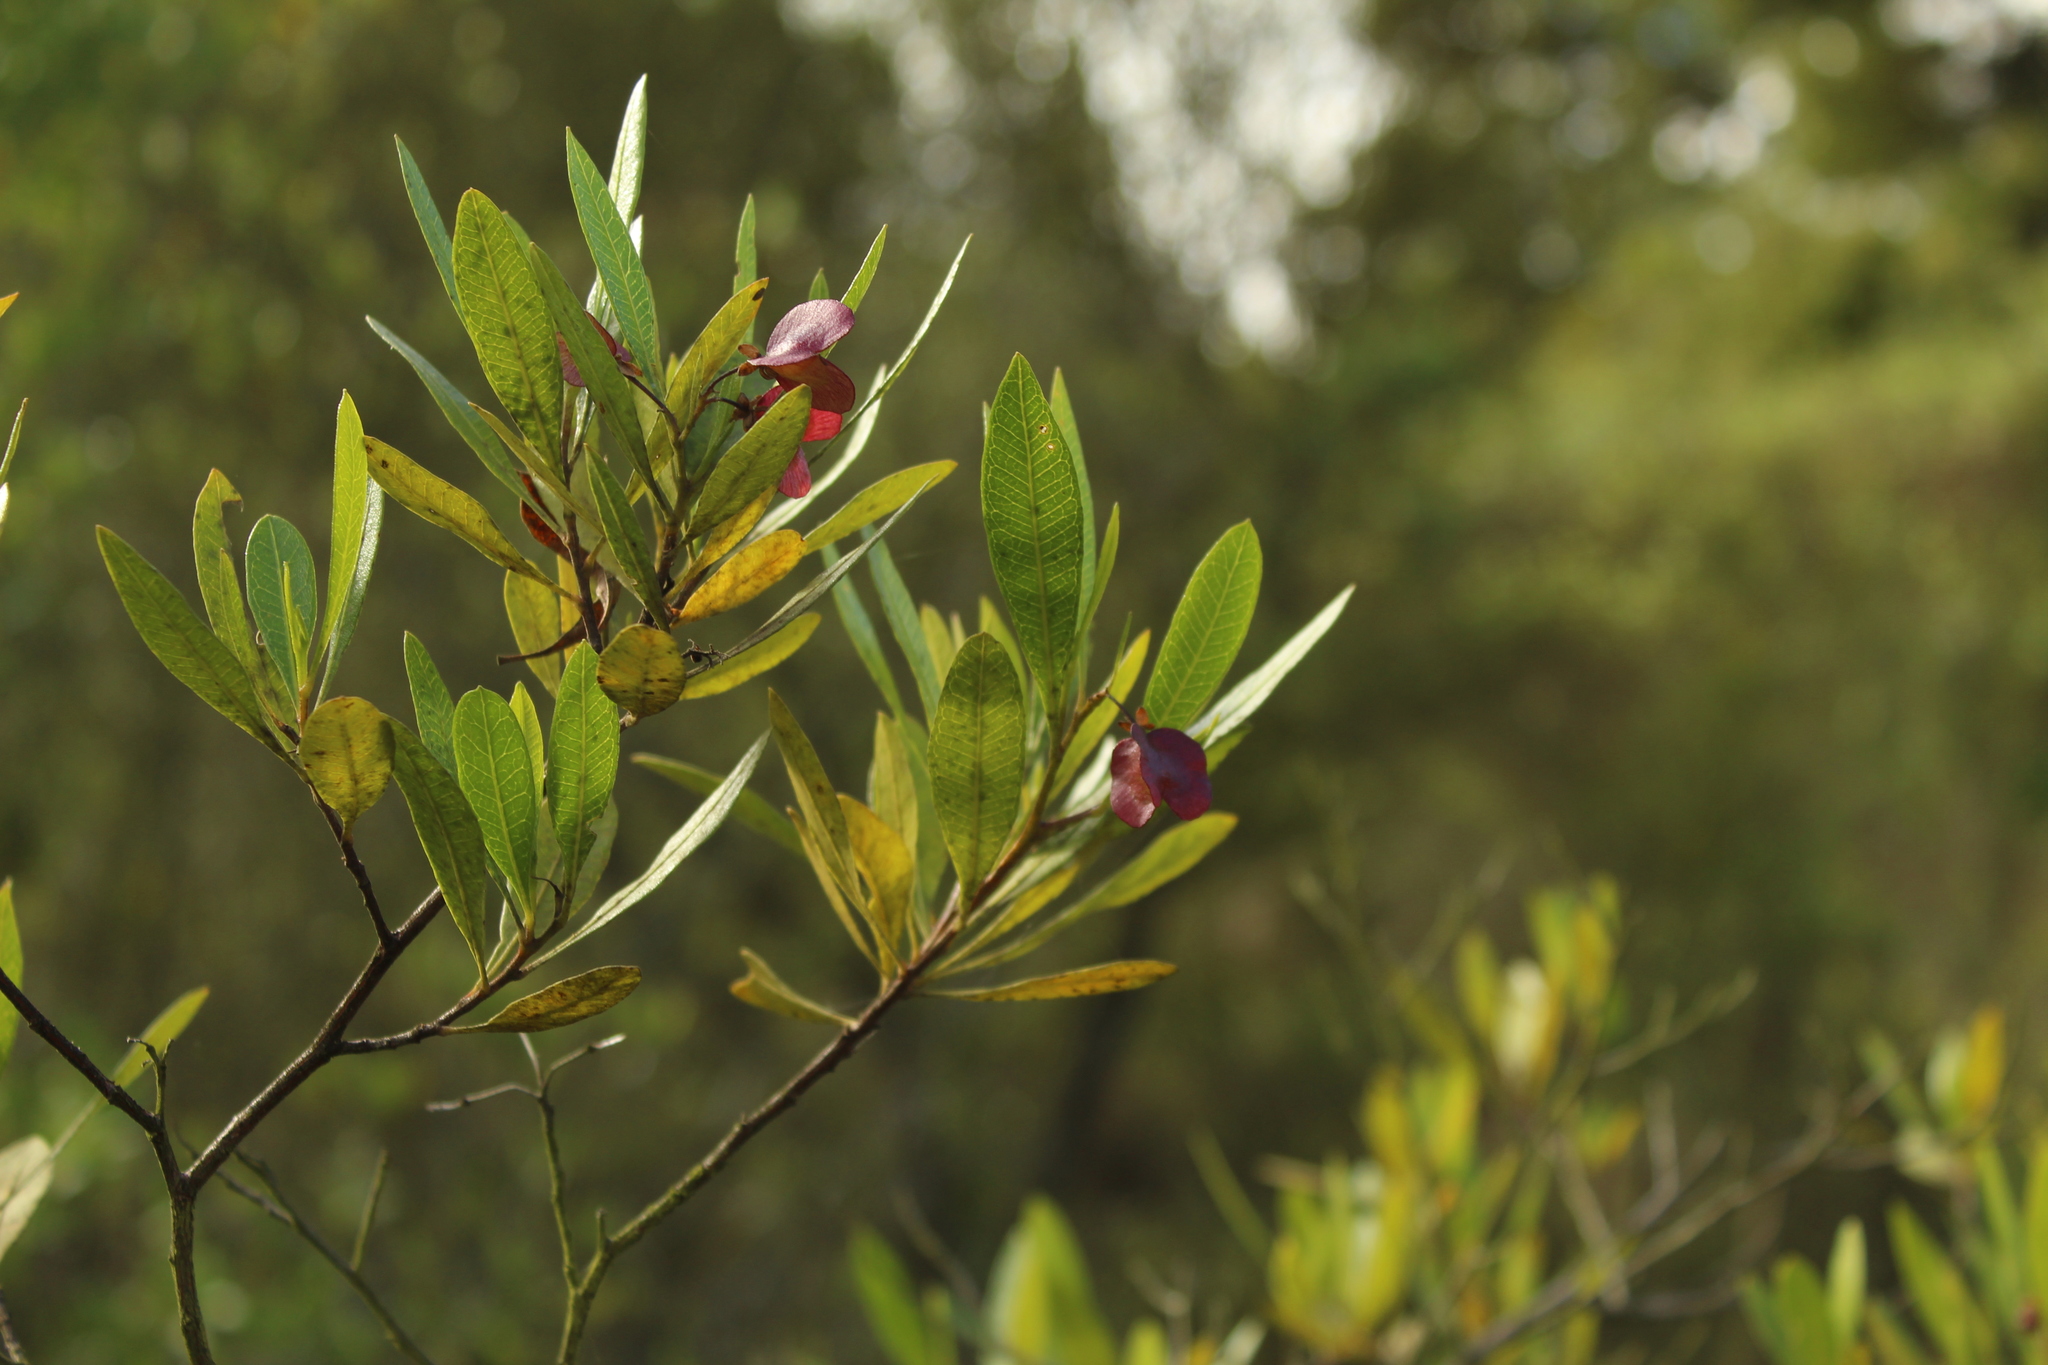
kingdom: Plantae
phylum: Tracheophyta
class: Magnoliopsida
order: Sapindales
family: Sapindaceae
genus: Dodonaea
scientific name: Dodonaea viscosa
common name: Hopbush
